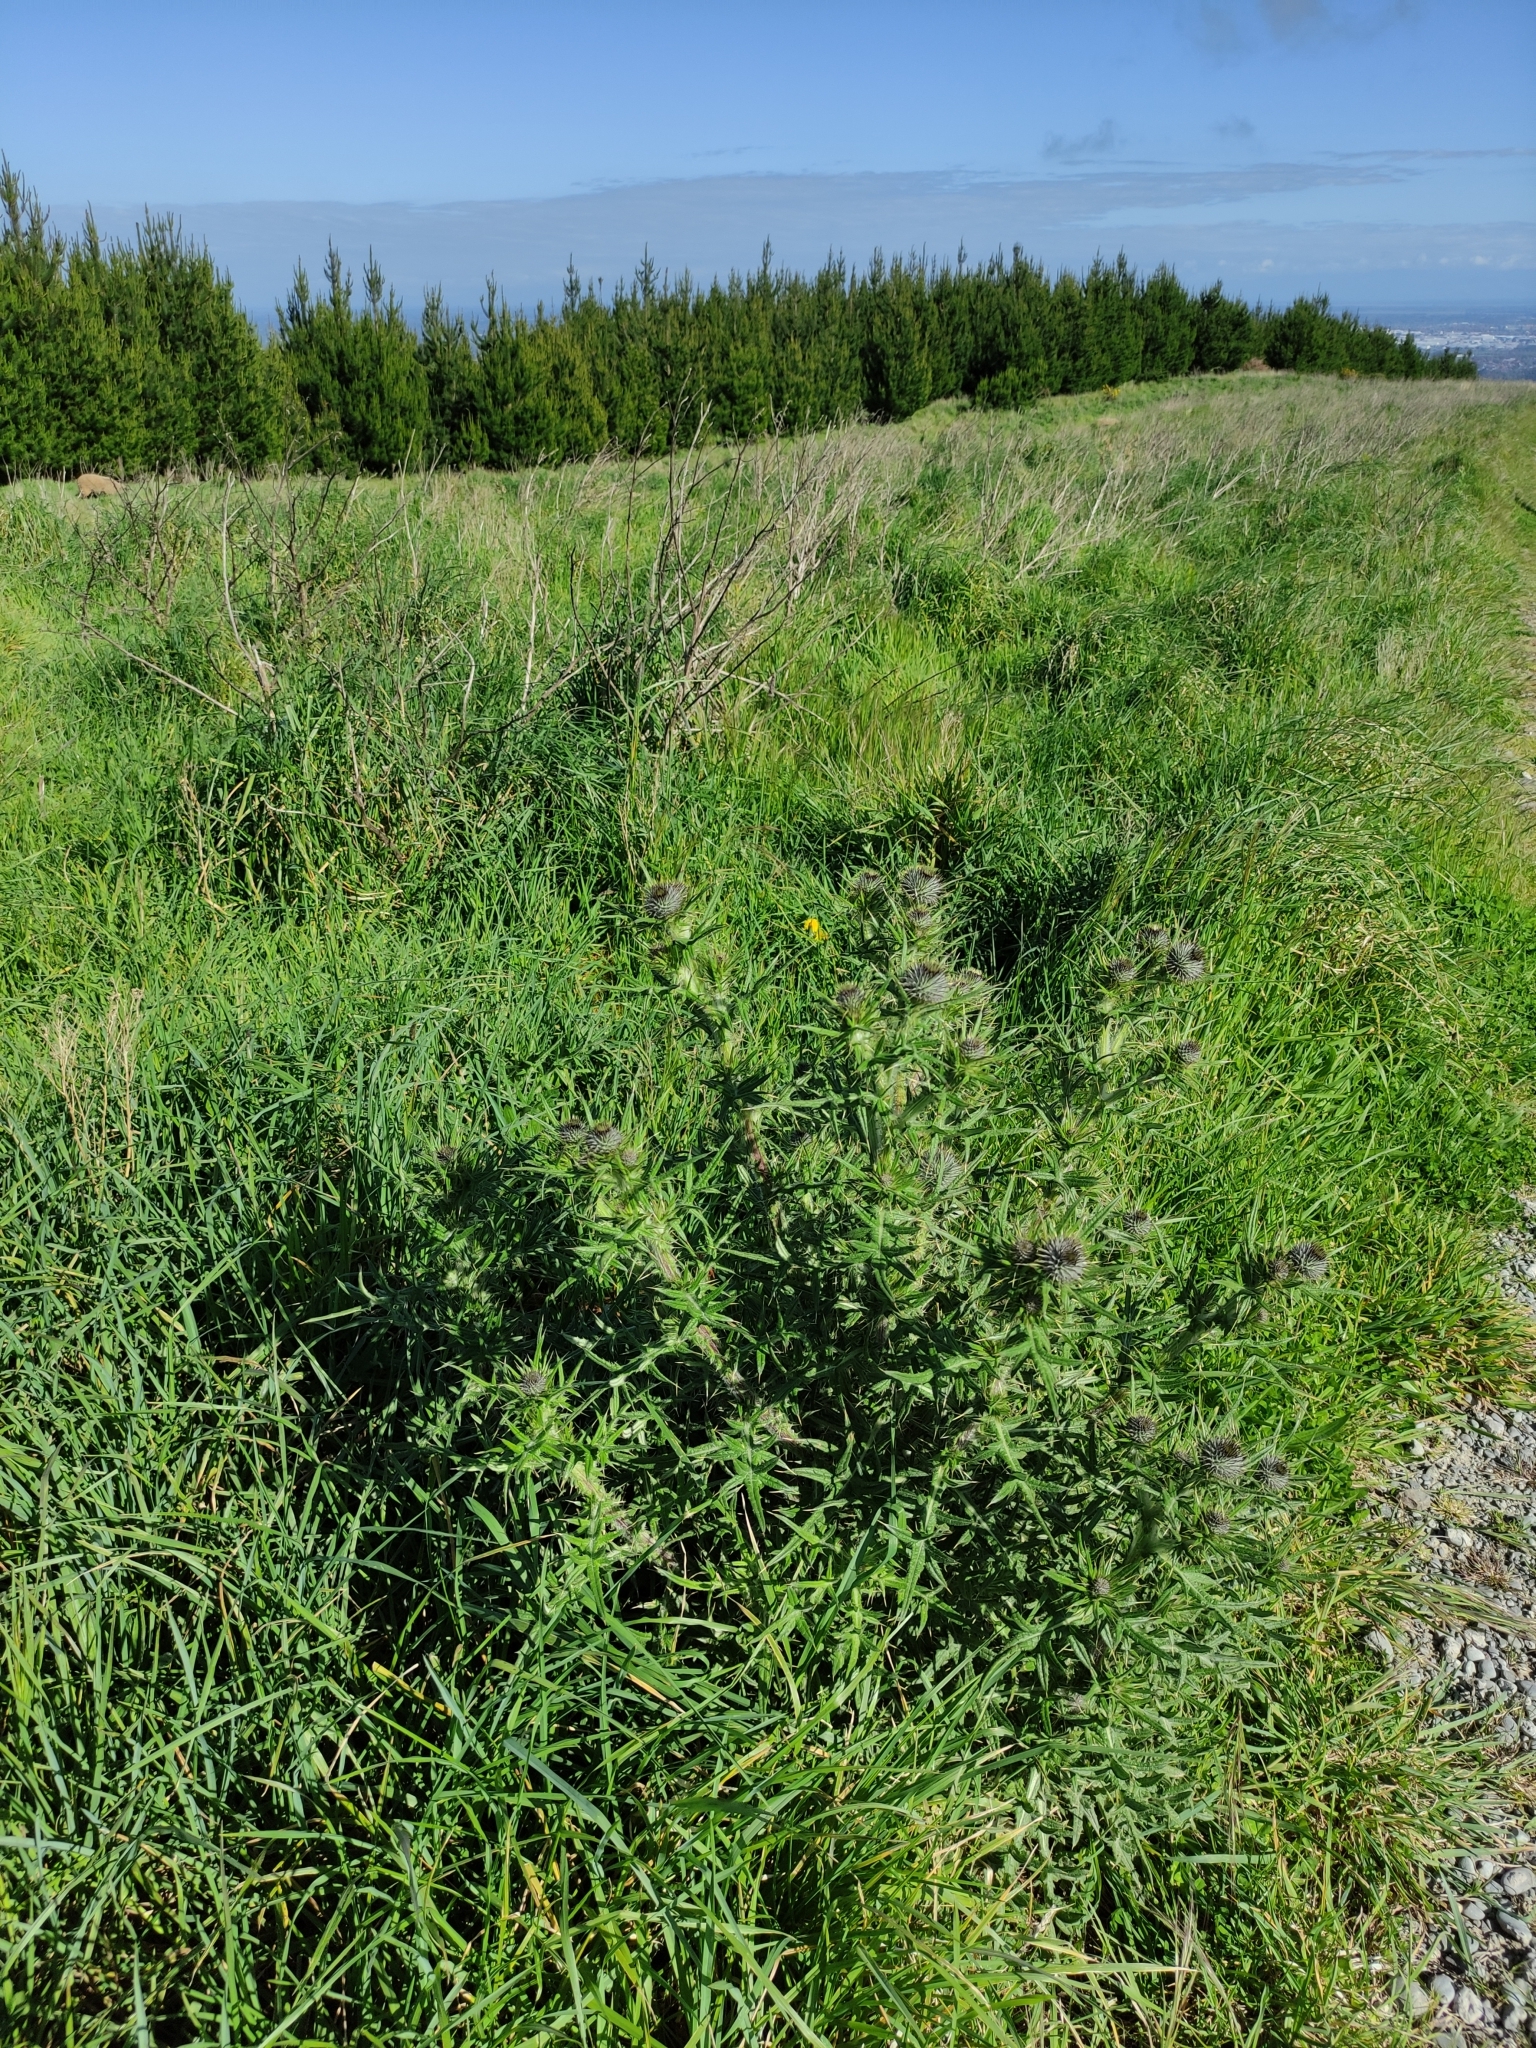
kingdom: Plantae
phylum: Tracheophyta
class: Magnoliopsida
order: Asterales
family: Asteraceae
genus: Cirsium
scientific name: Cirsium vulgare
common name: Bull thistle
